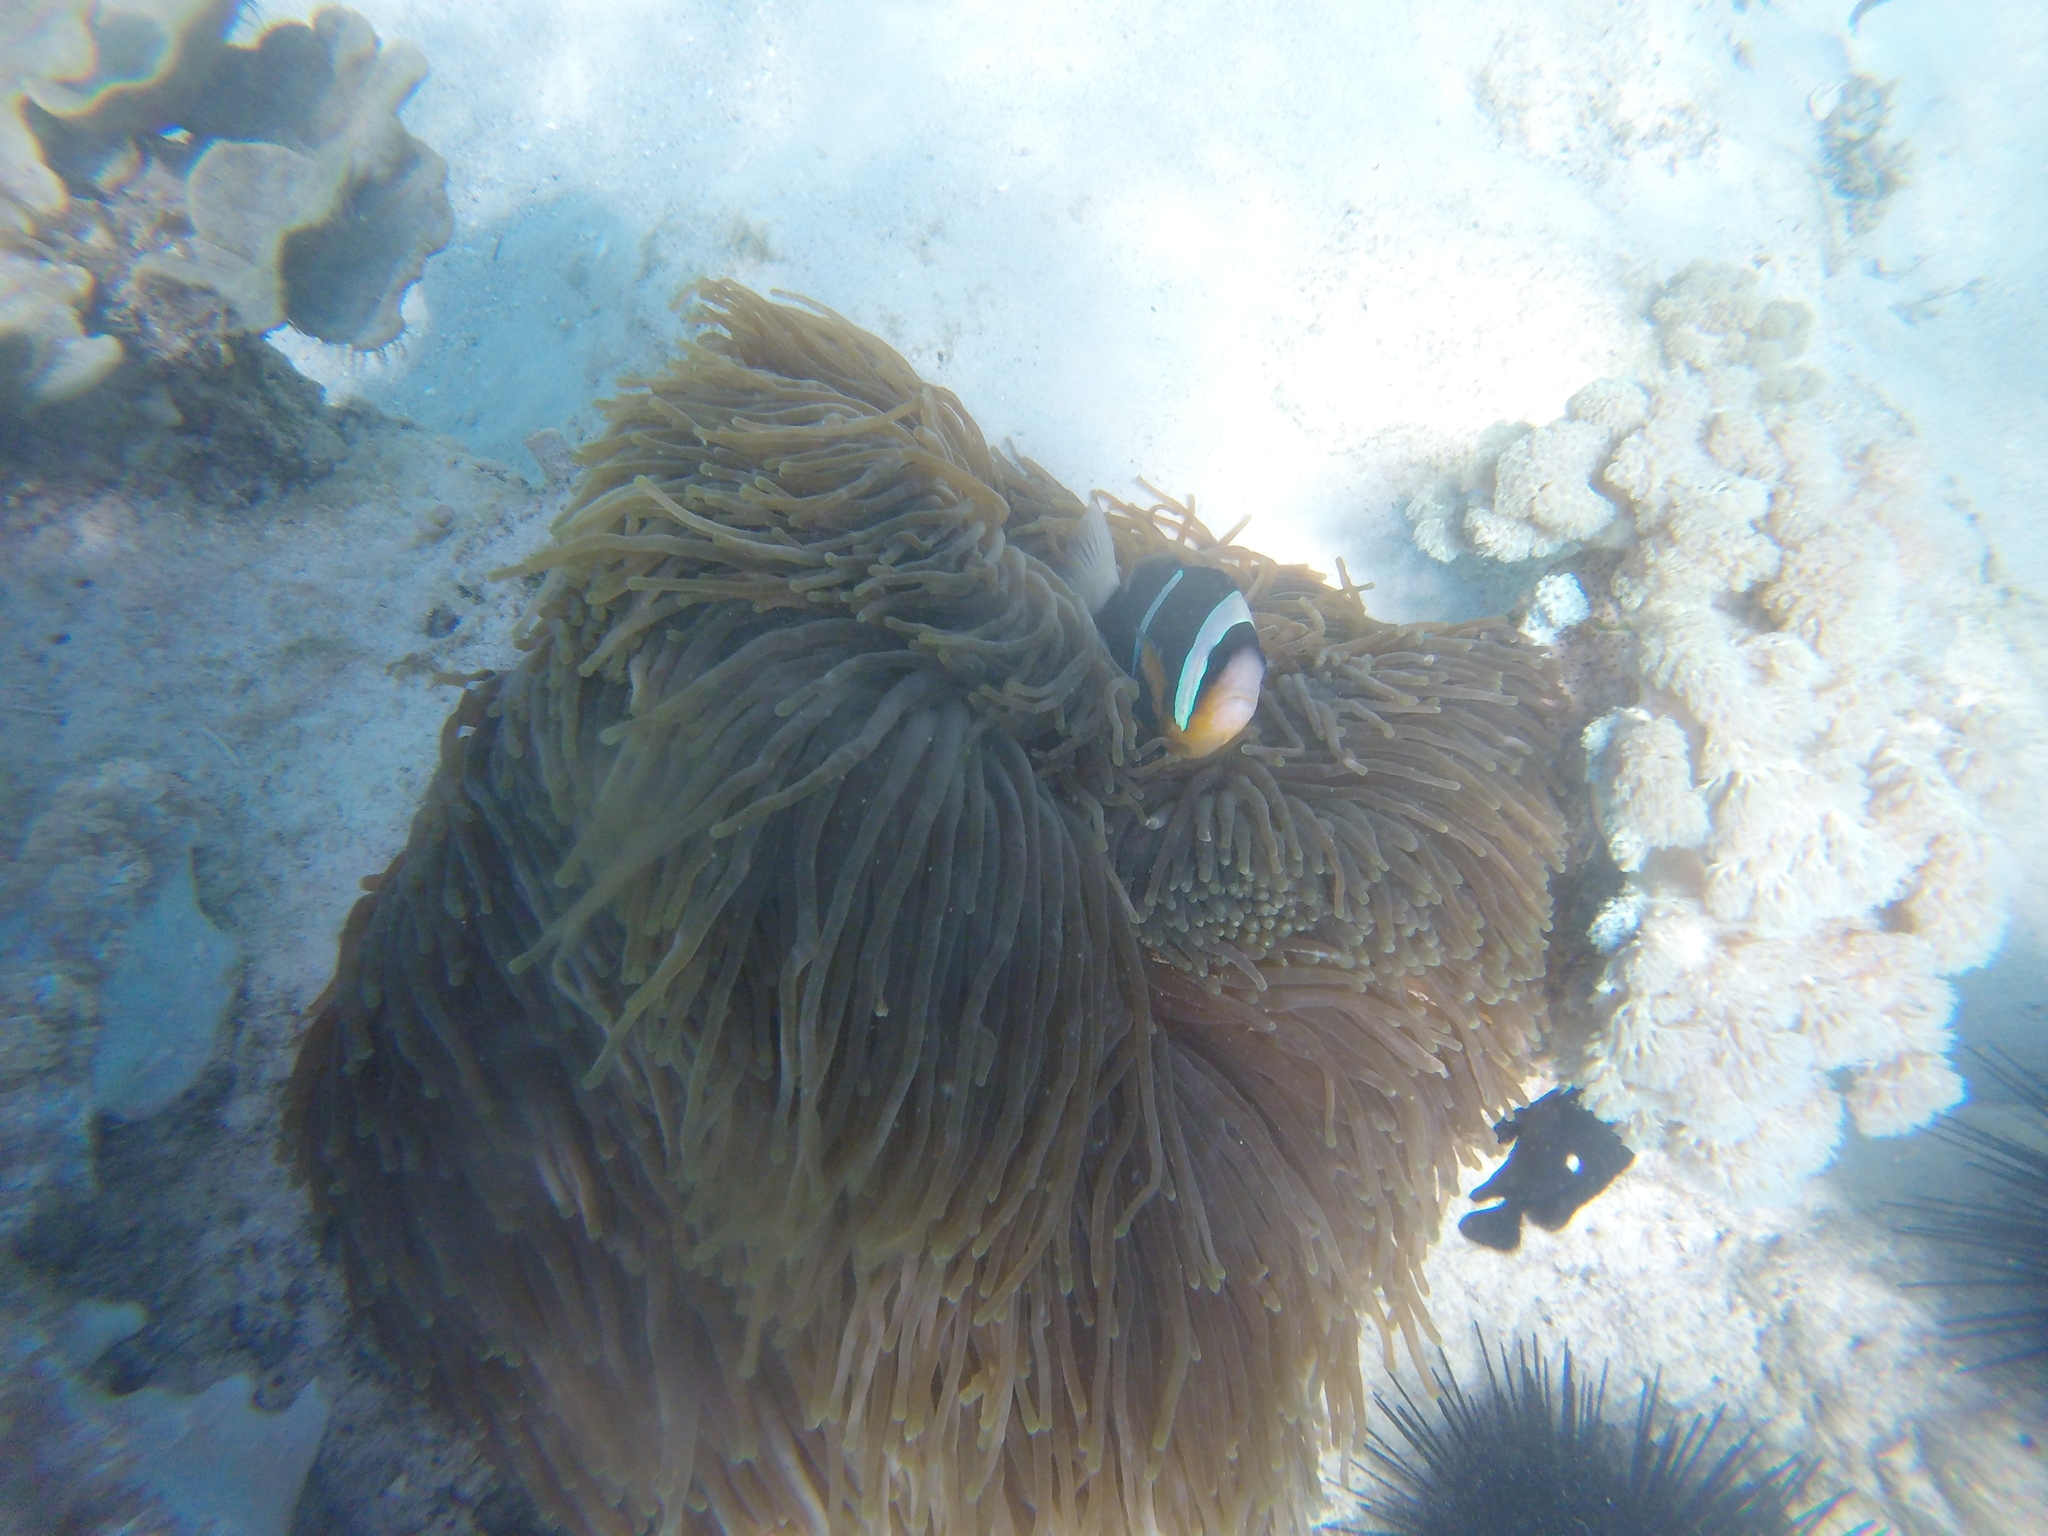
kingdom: Animalia
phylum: Chordata
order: Perciformes
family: Pomacentridae
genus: Amphiprion
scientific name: Amphiprion allardi
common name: Allard's anemonefish
